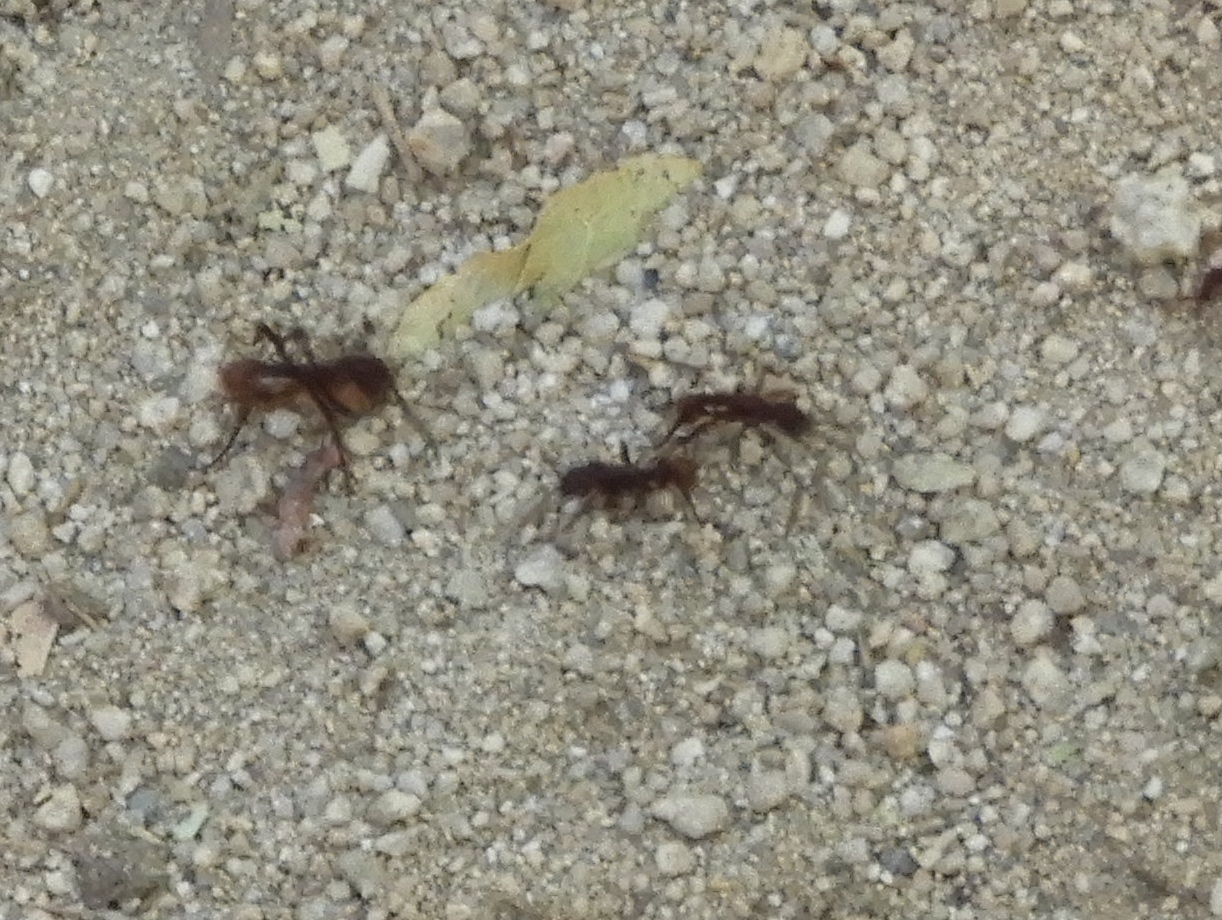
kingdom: Animalia
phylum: Arthropoda
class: Insecta
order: Hymenoptera
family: Formicidae
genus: Nomamyrmex
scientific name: Nomamyrmex esenbeckii
